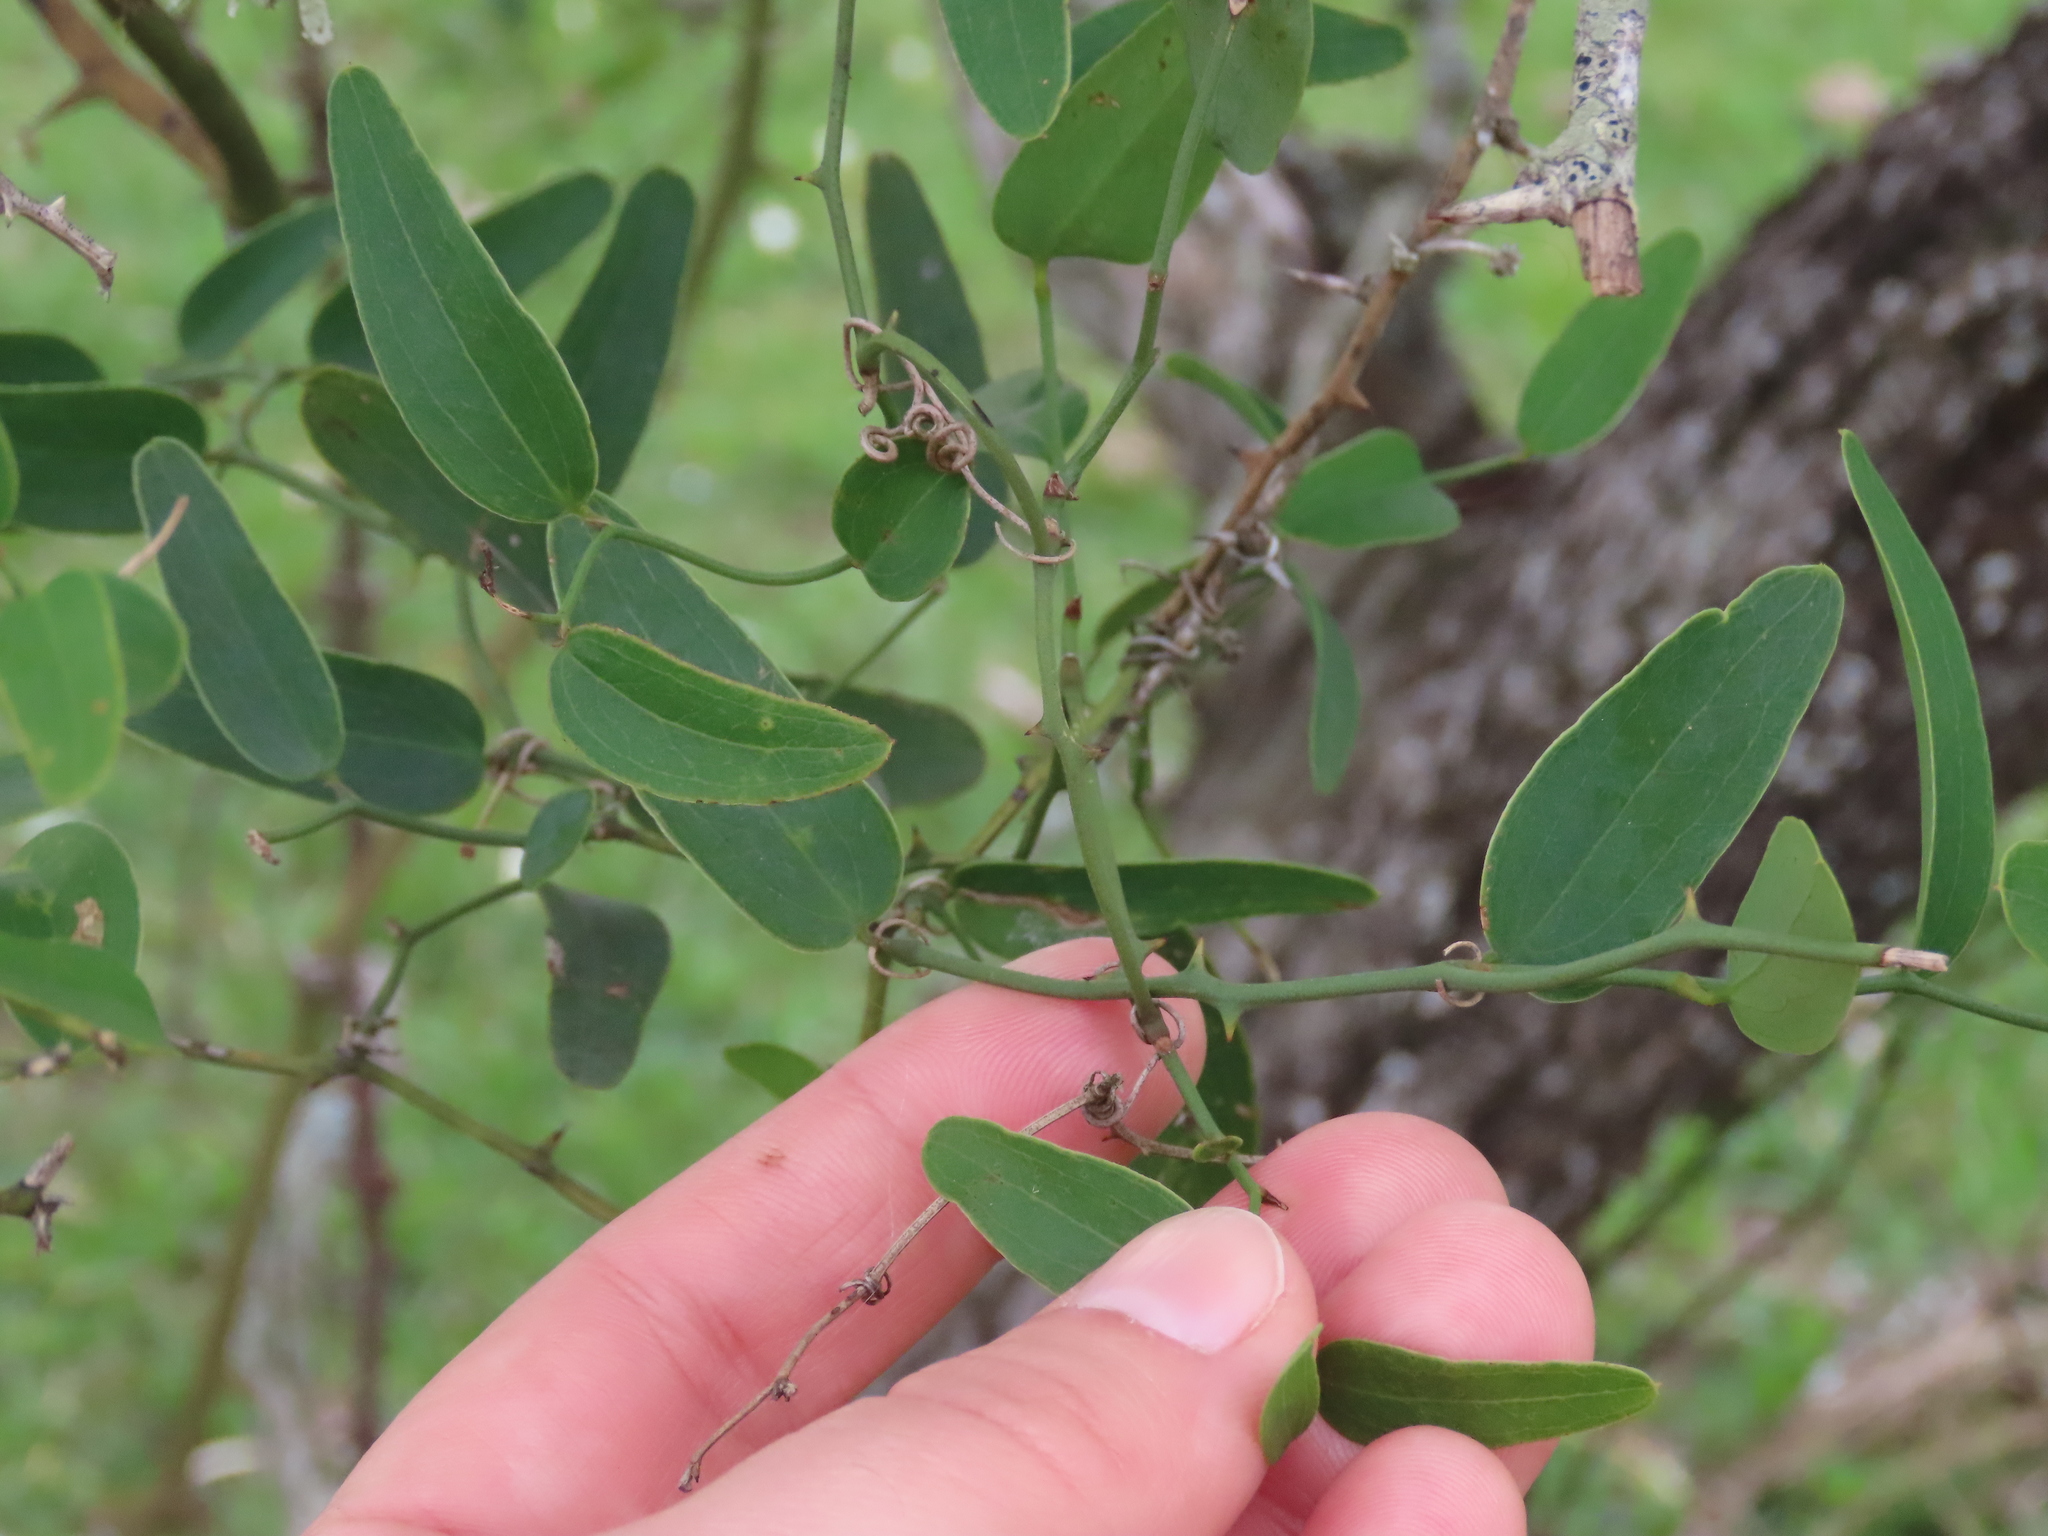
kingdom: Plantae
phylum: Tracheophyta
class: Liliopsida
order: Liliales
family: Smilacaceae
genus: Smilax
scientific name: Smilax campestris
